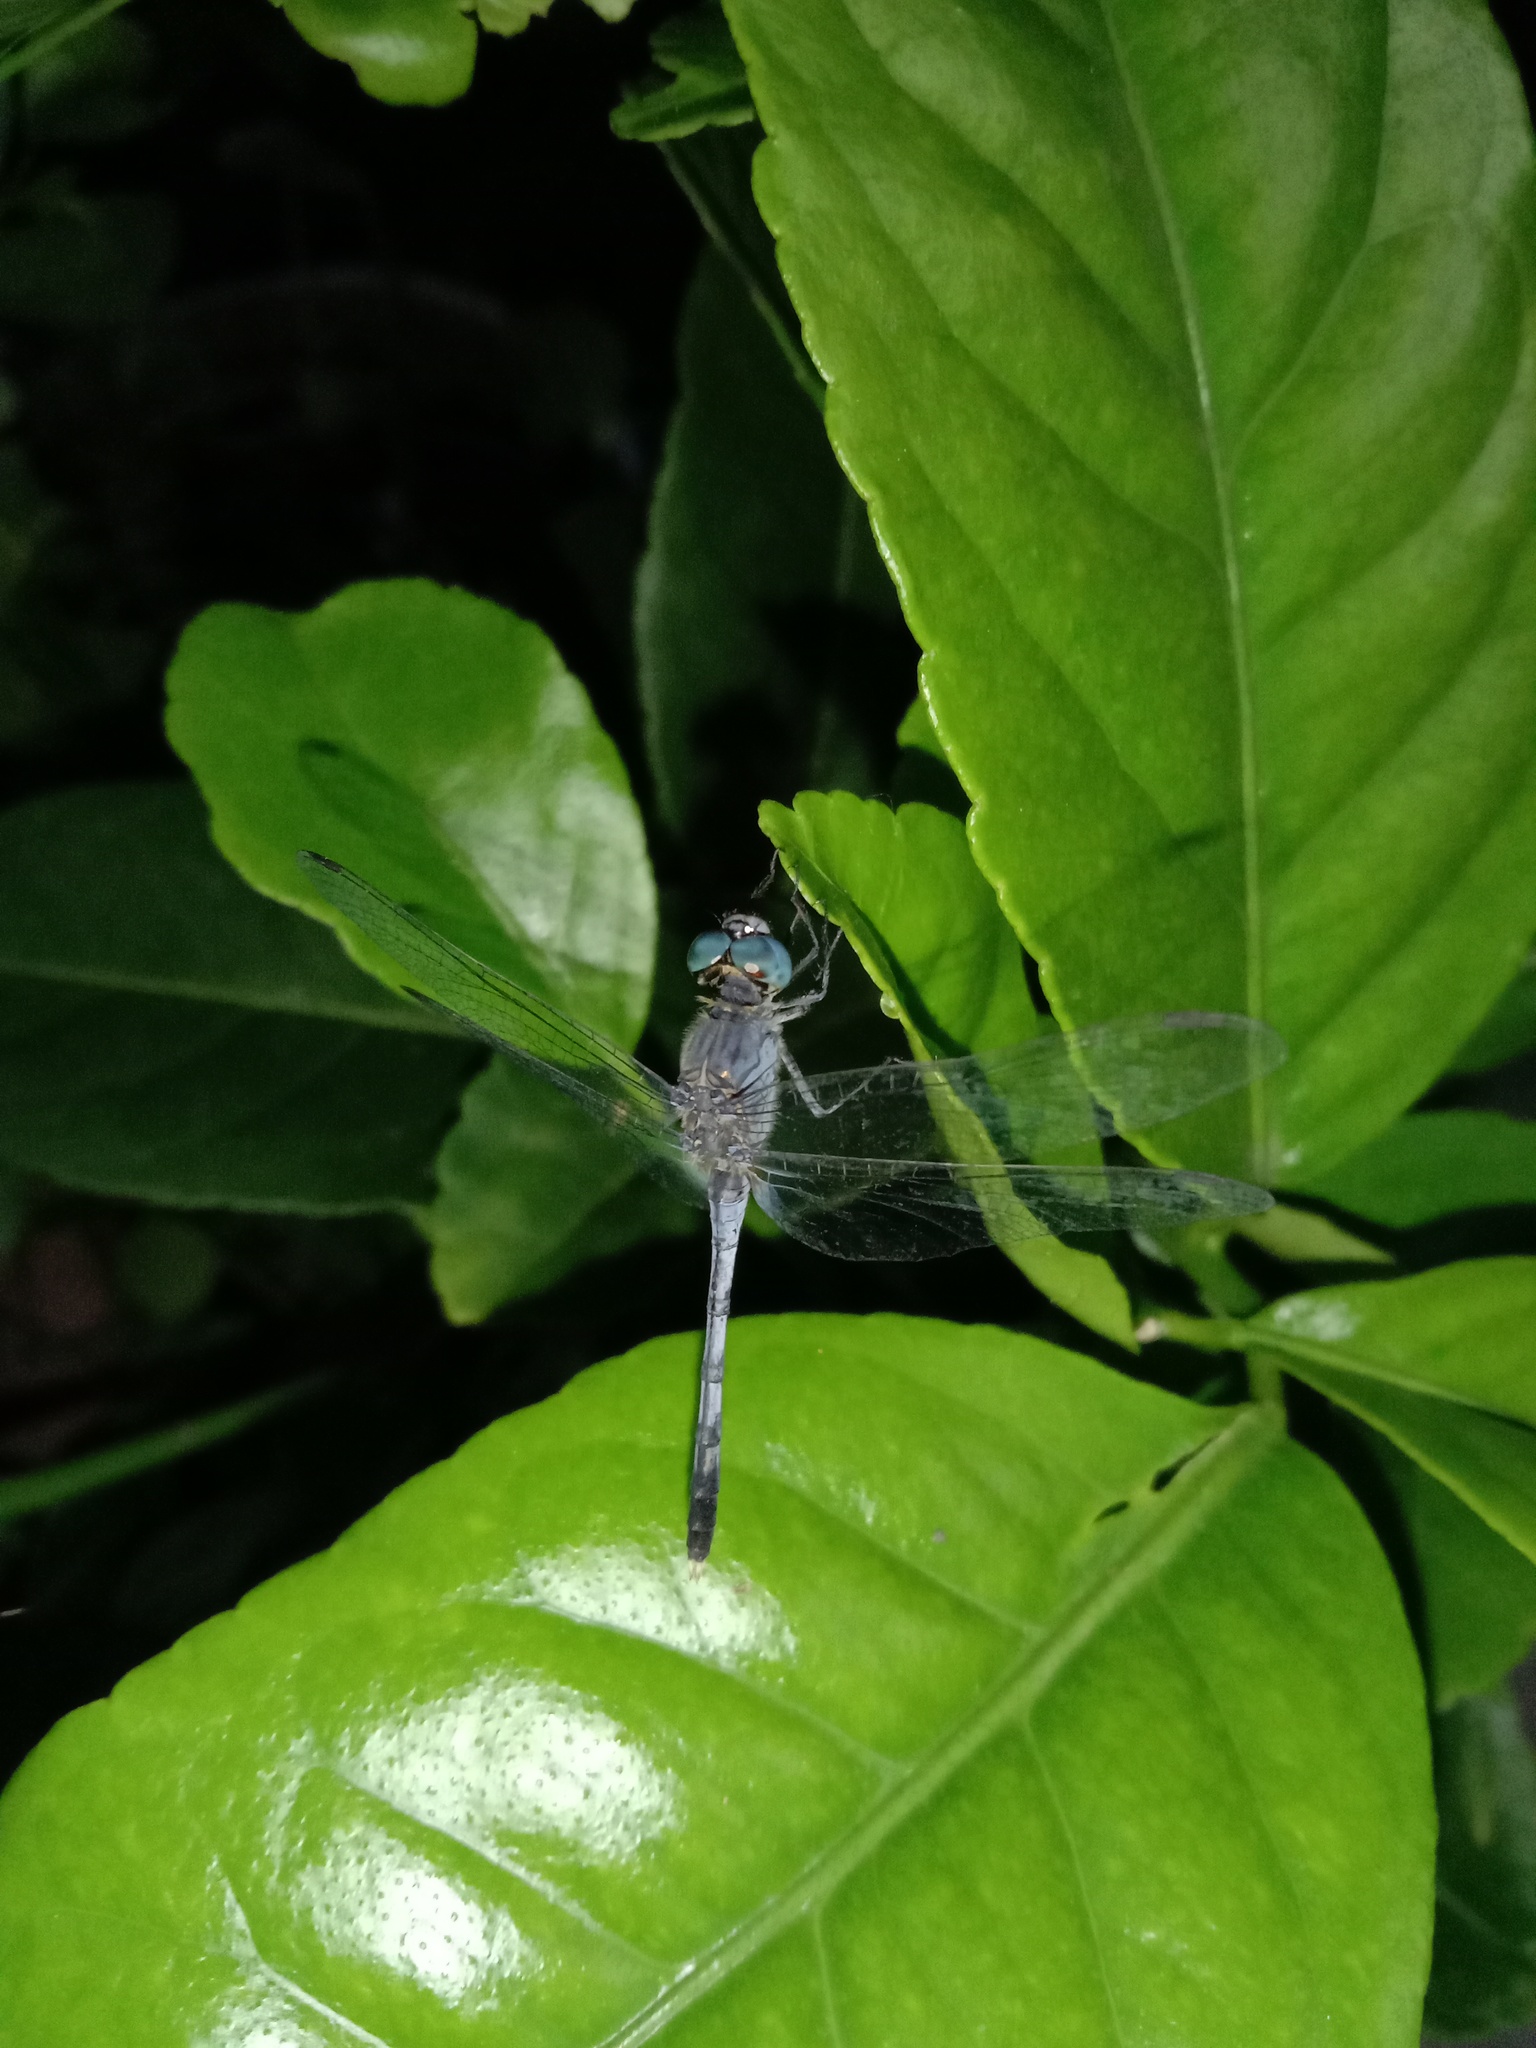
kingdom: Animalia
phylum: Arthropoda
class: Insecta
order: Odonata
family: Libellulidae
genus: Diplacodes
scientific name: Diplacodes trivialis
